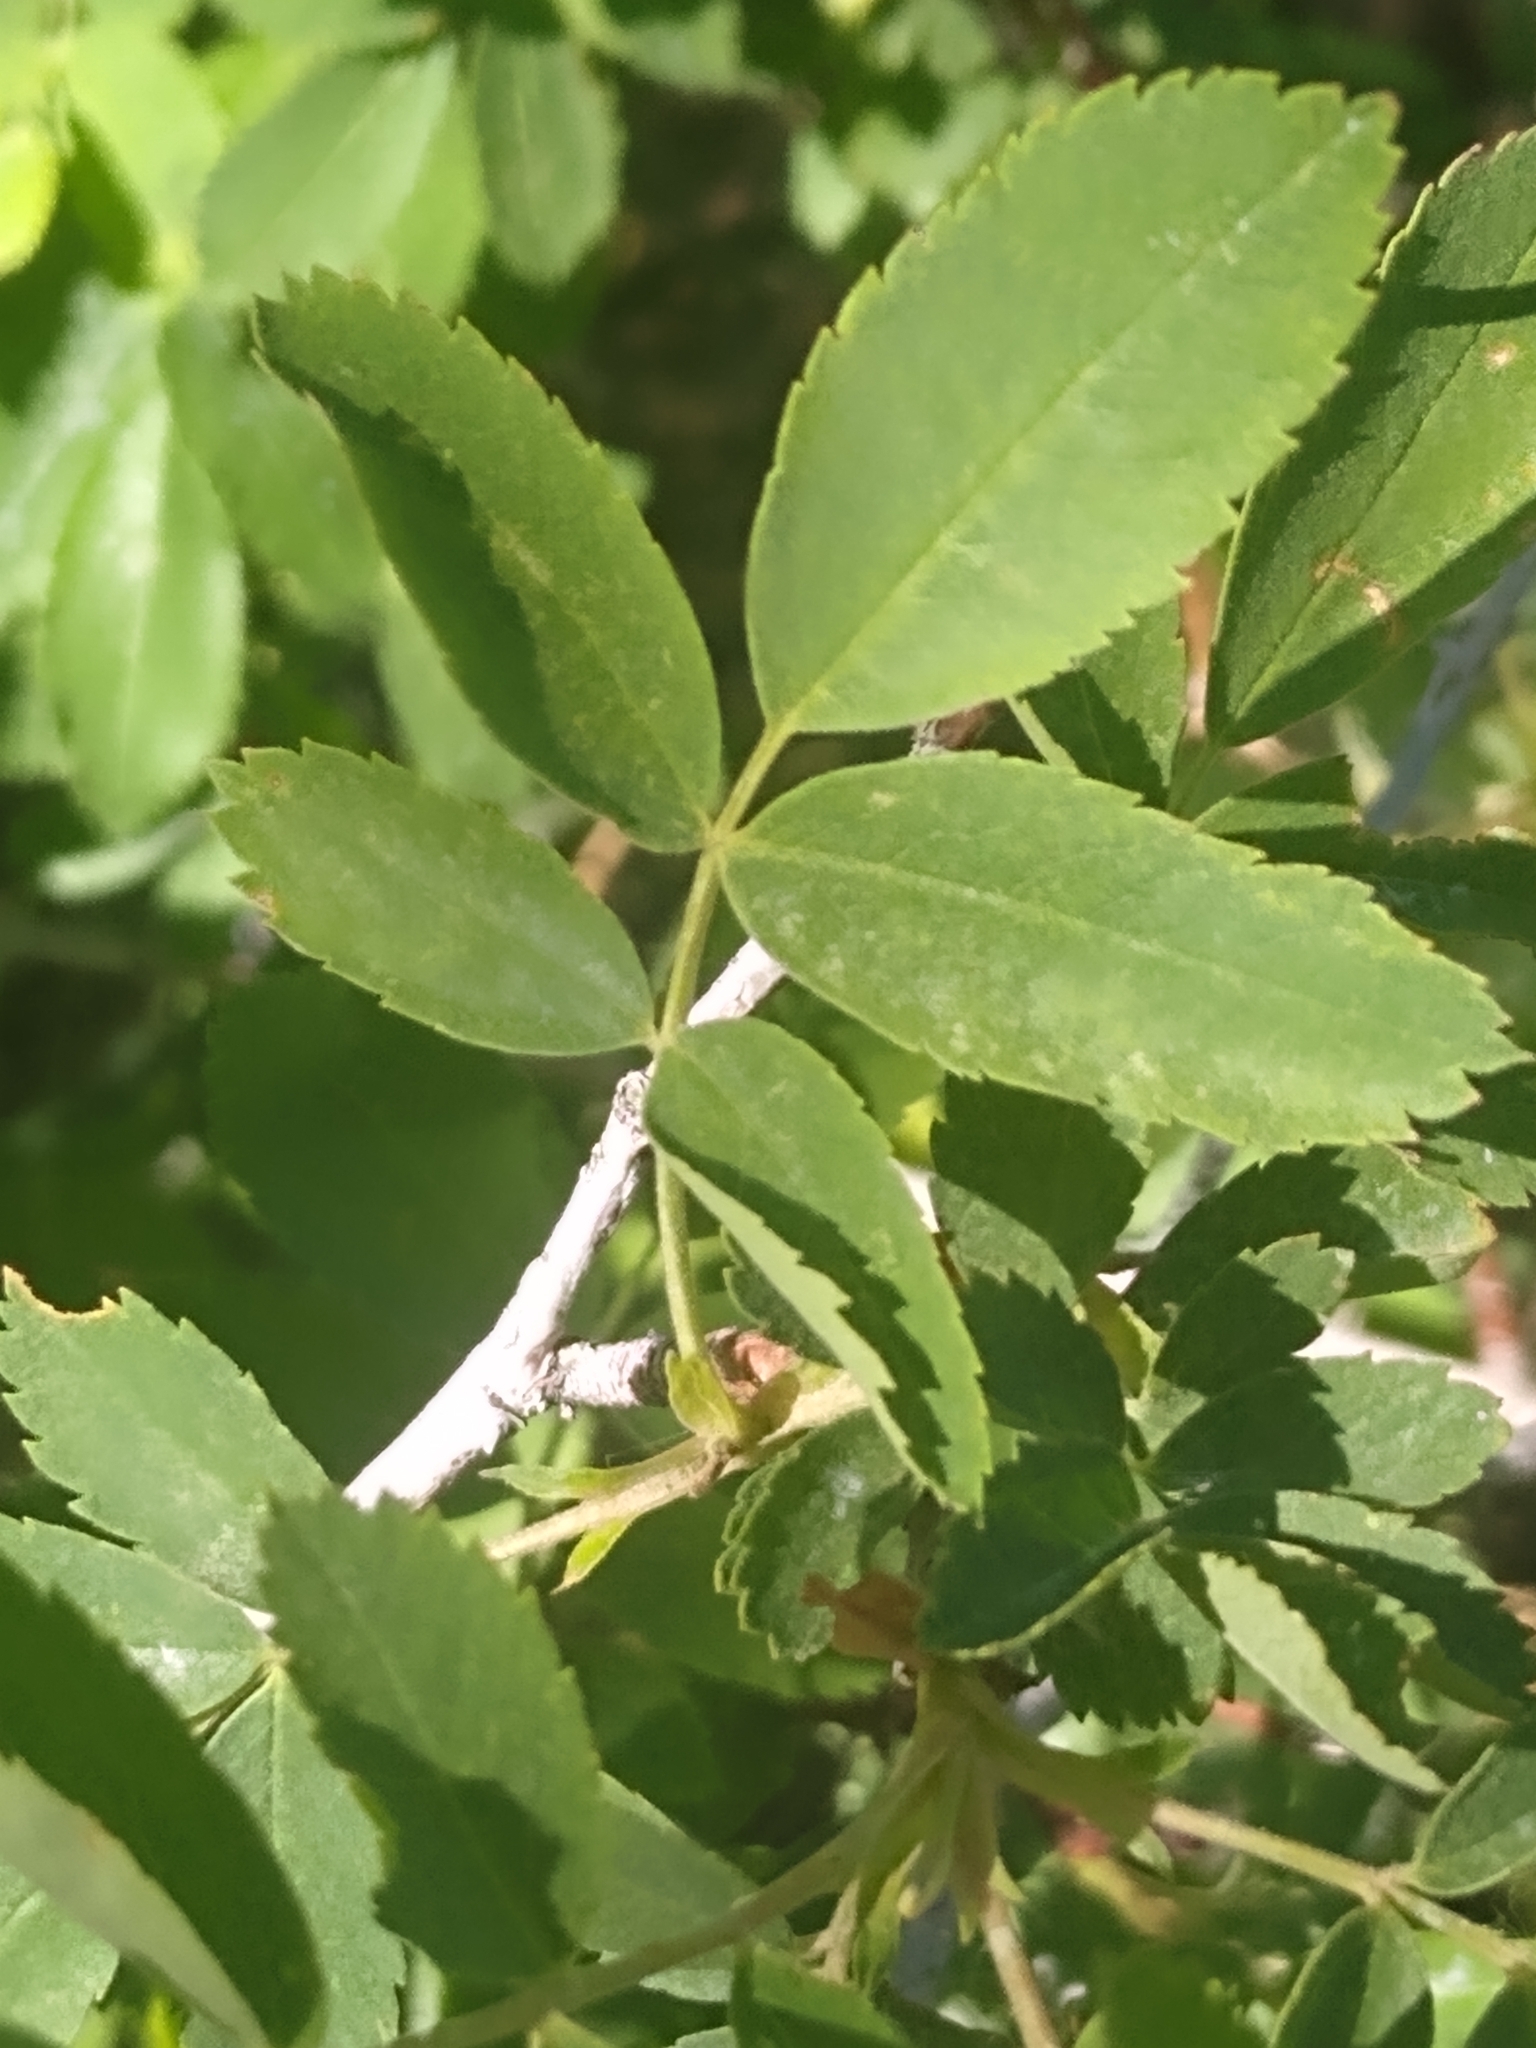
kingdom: Plantae
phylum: Tracheophyta
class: Magnoliopsida
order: Rosales
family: Rosaceae
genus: Rosa
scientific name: Rosa woodsii
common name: Woods's rose
